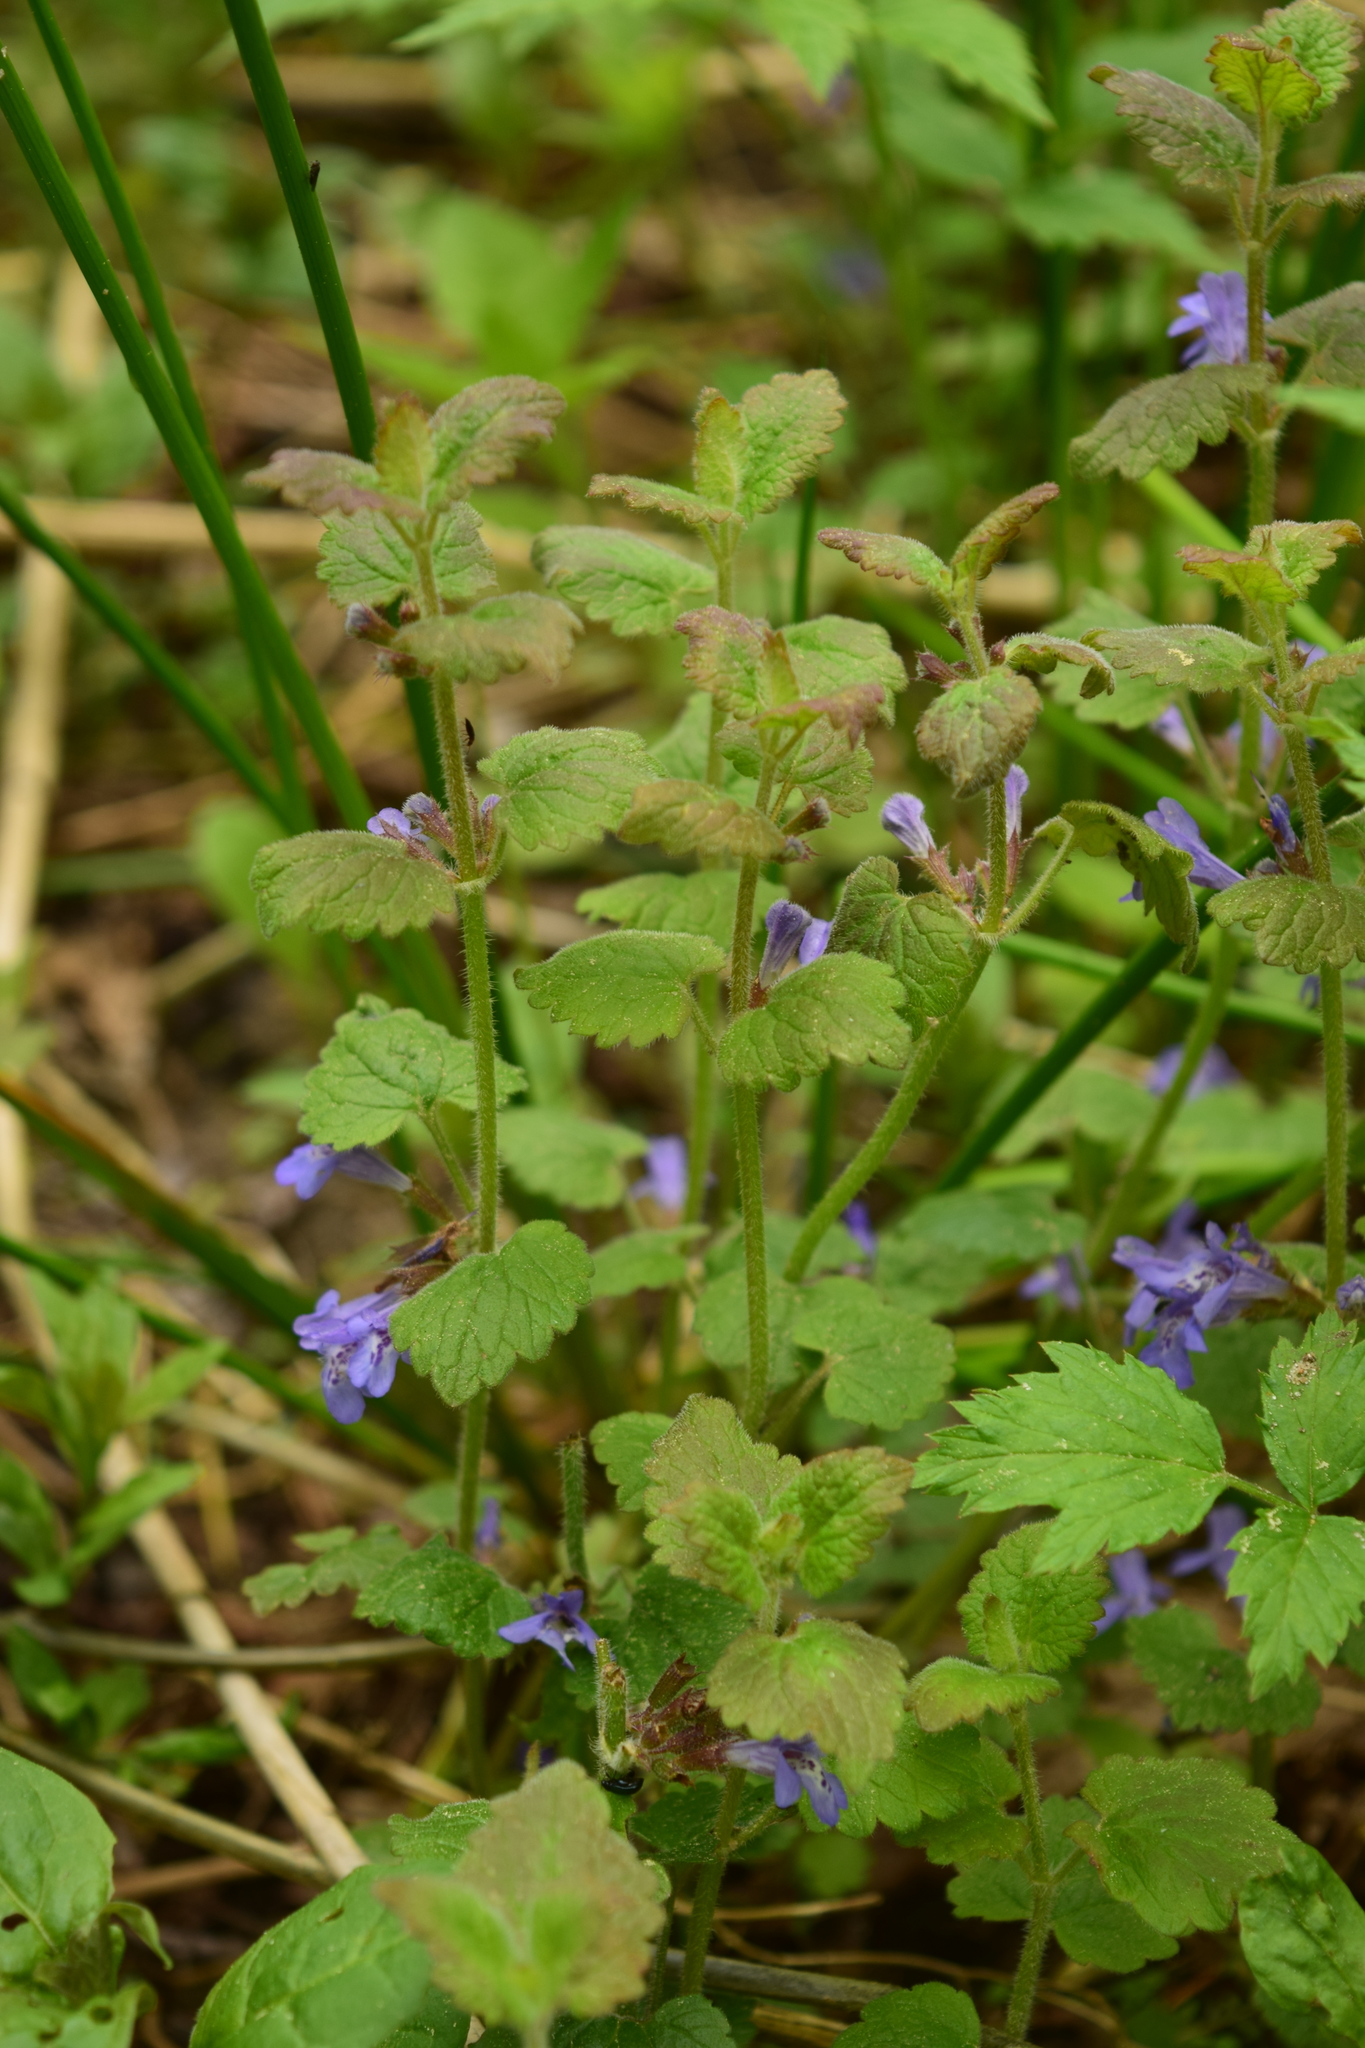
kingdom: Plantae
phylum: Tracheophyta
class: Magnoliopsida
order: Lamiales
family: Lamiaceae
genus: Glechoma
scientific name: Glechoma hederacea
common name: Ground ivy
